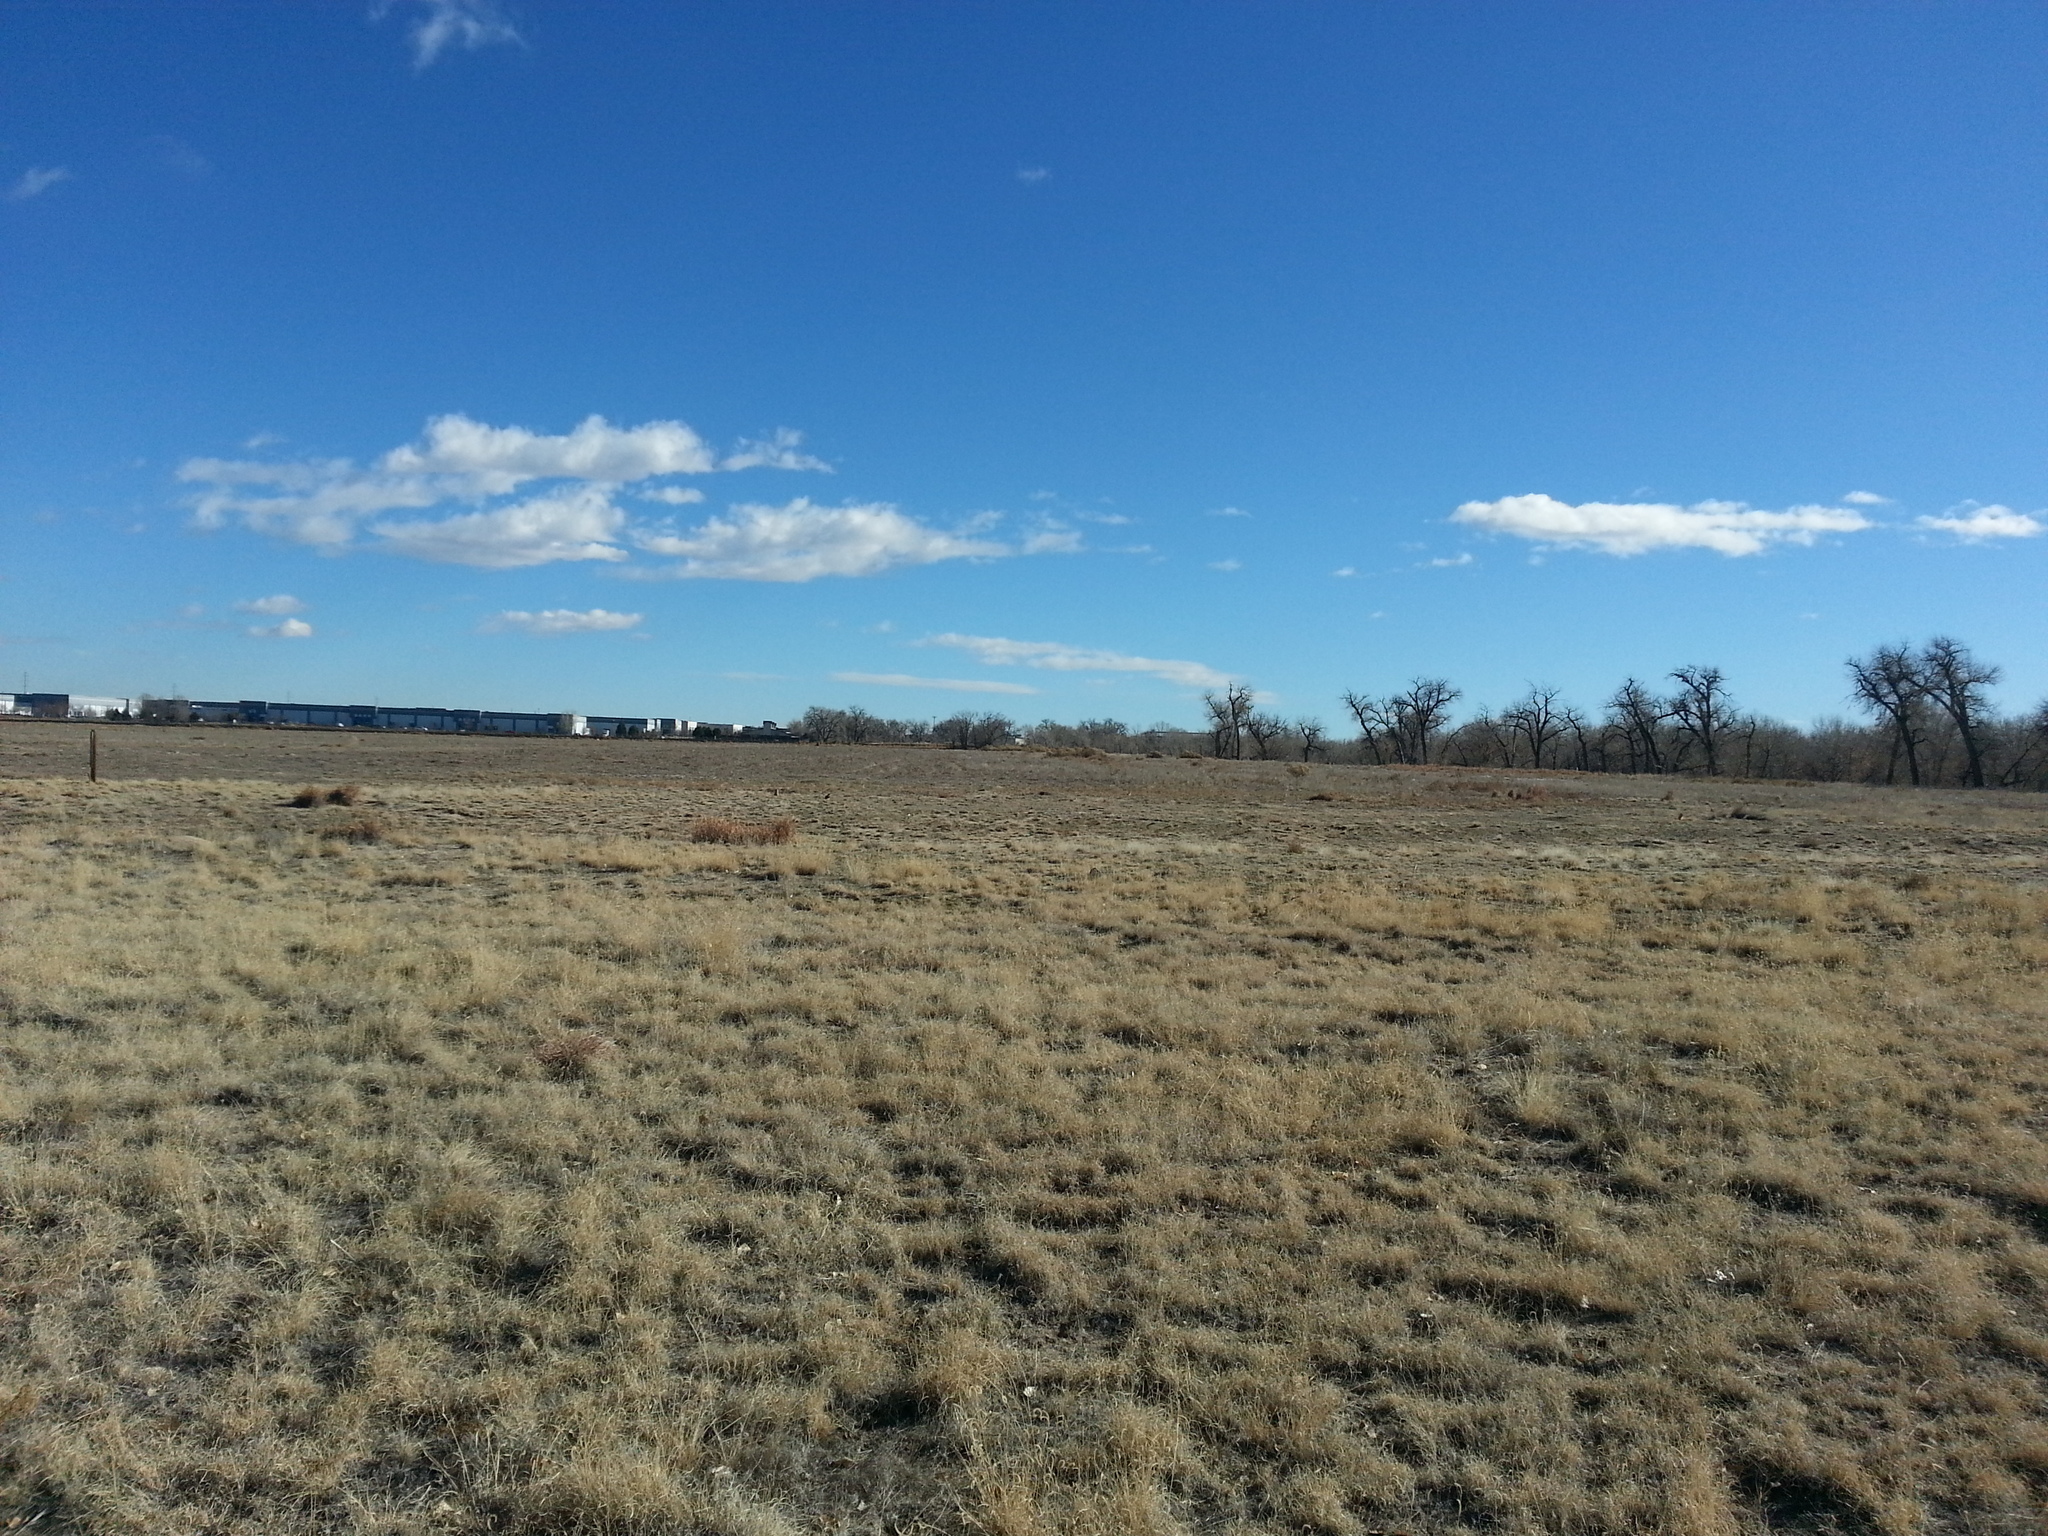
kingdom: Animalia
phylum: Chordata
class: Mammalia
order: Rodentia
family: Sciuridae
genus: Cynomys
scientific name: Cynomys ludovicianus
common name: Black-tailed prairie dog
